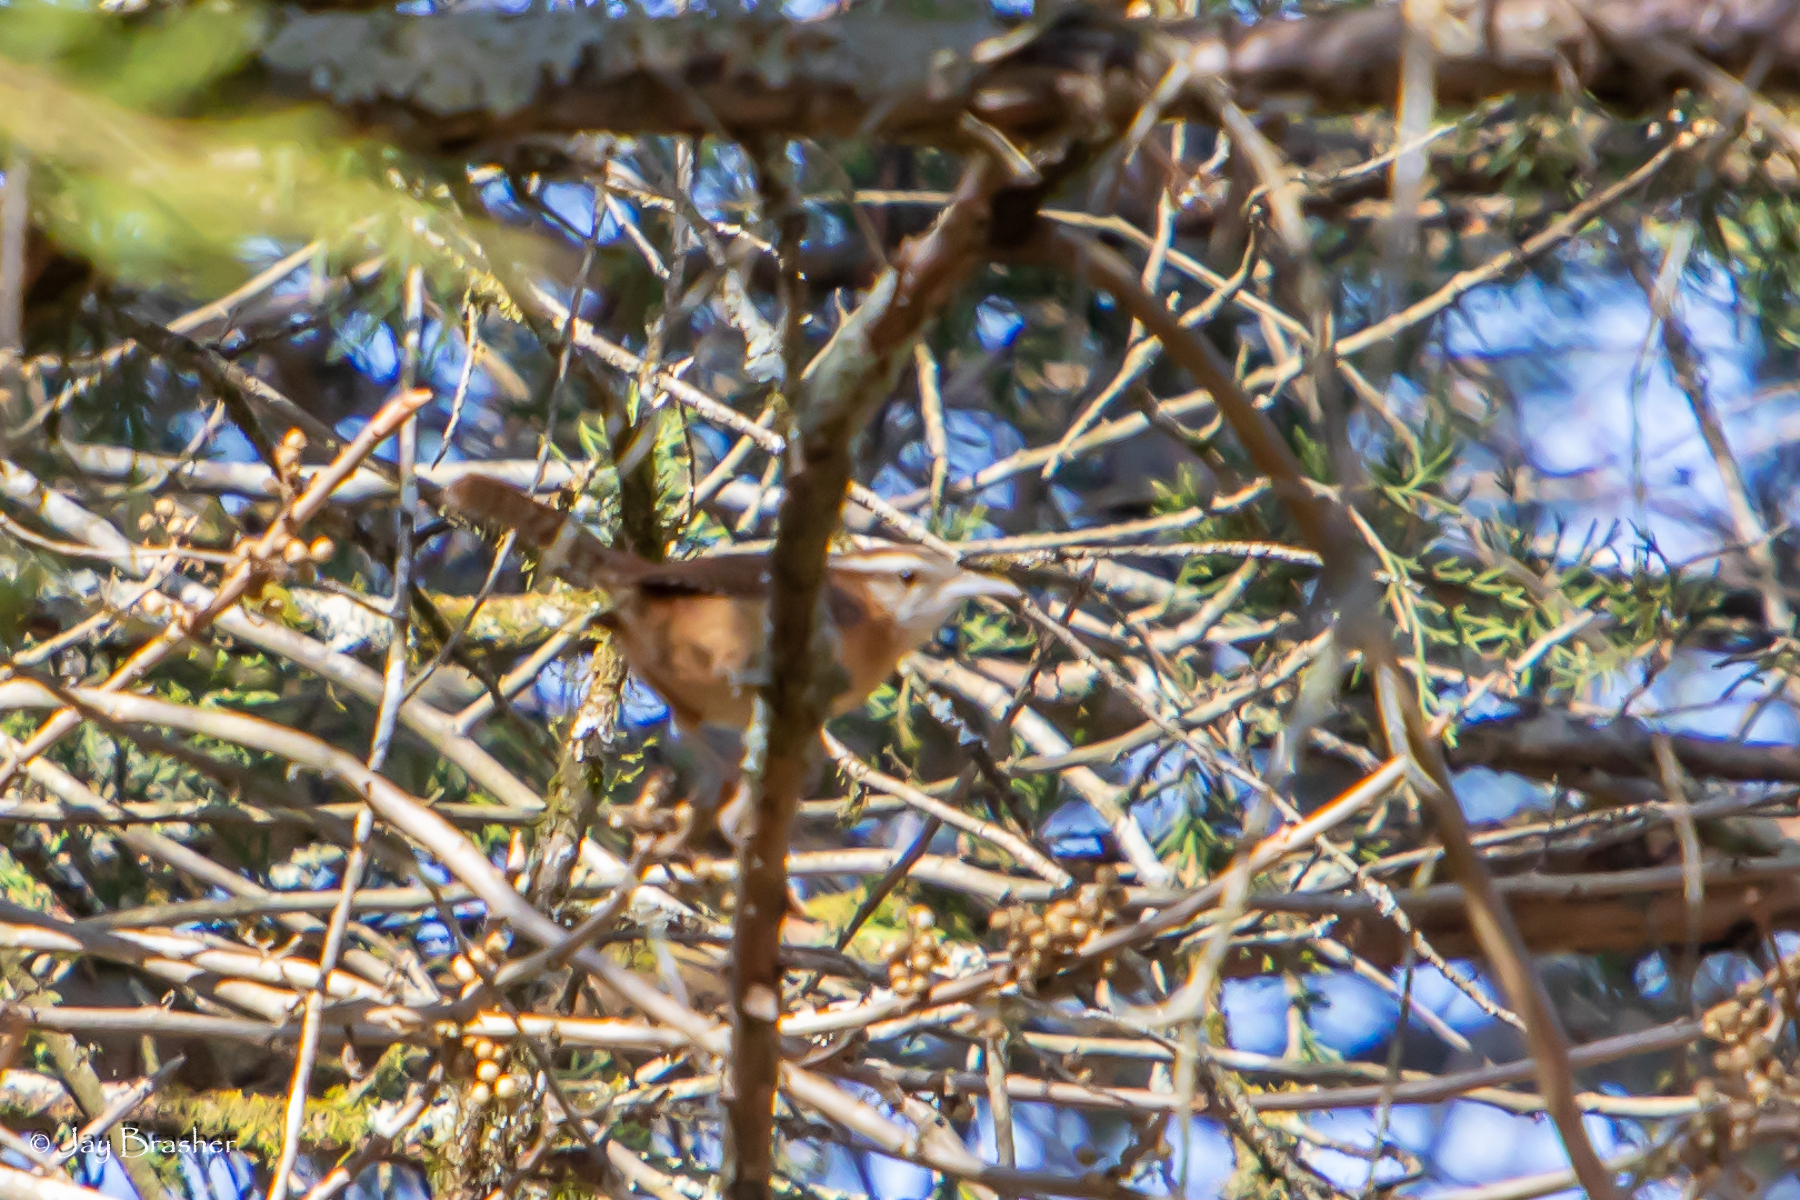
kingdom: Animalia
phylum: Chordata
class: Aves
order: Passeriformes
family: Troglodytidae
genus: Thryothorus
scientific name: Thryothorus ludovicianus
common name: Carolina wren
